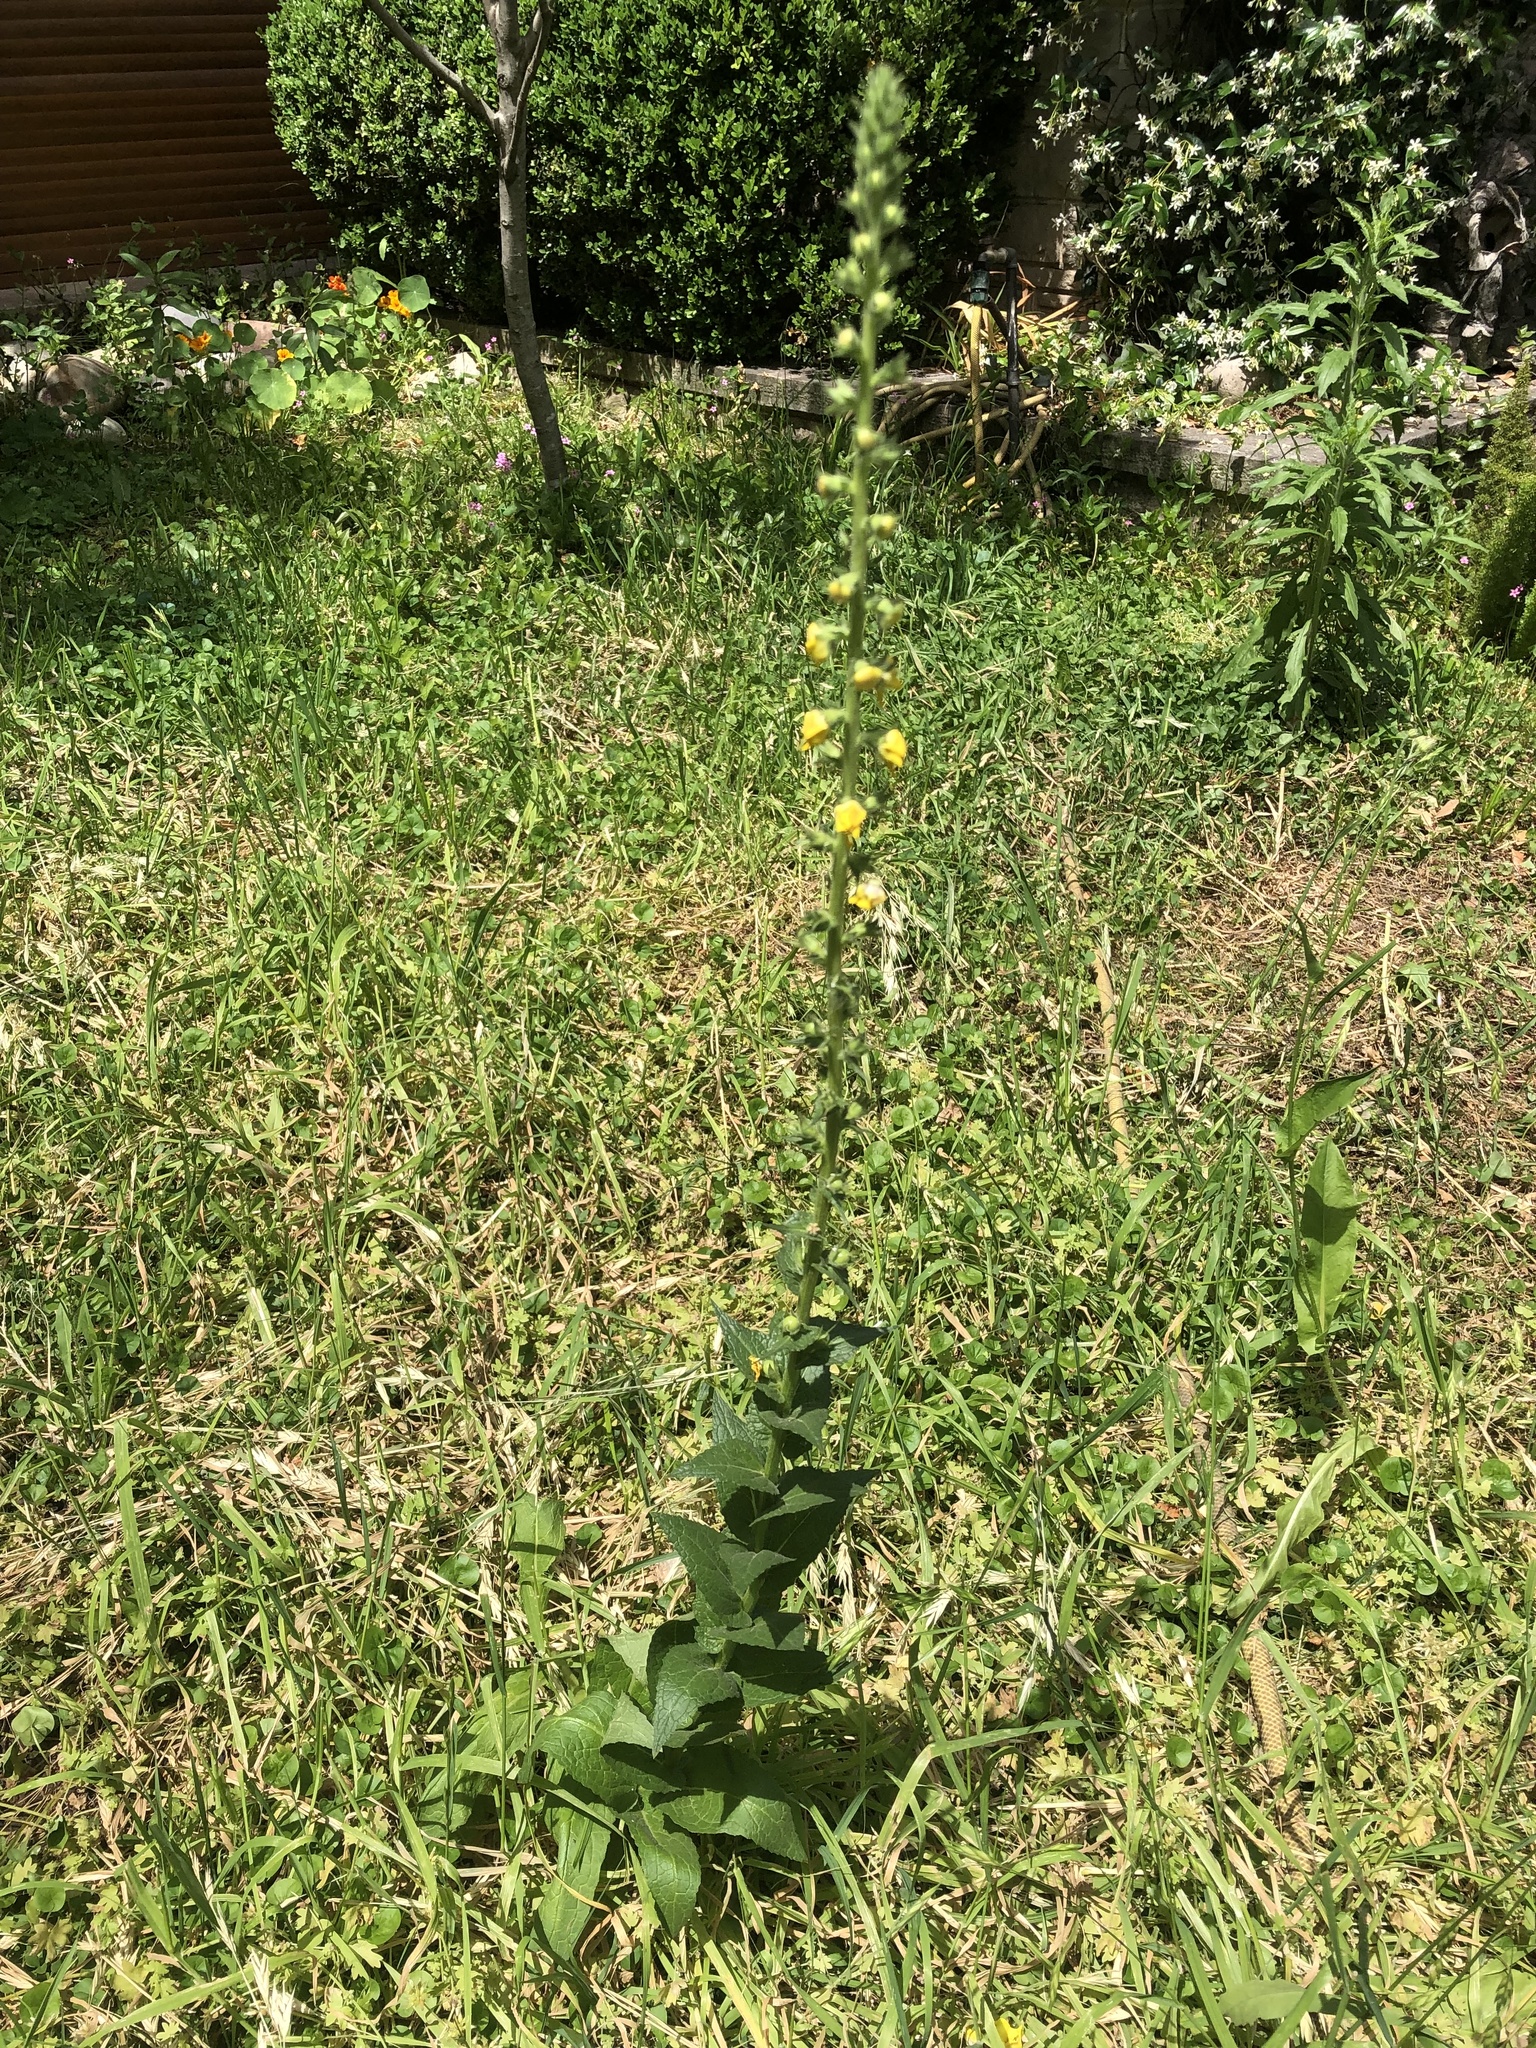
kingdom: Plantae
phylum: Tracheophyta
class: Magnoliopsida
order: Lamiales
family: Scrophulariaceae
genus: Verbascum
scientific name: Verbascum virgatum
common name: Twiggy mullein
